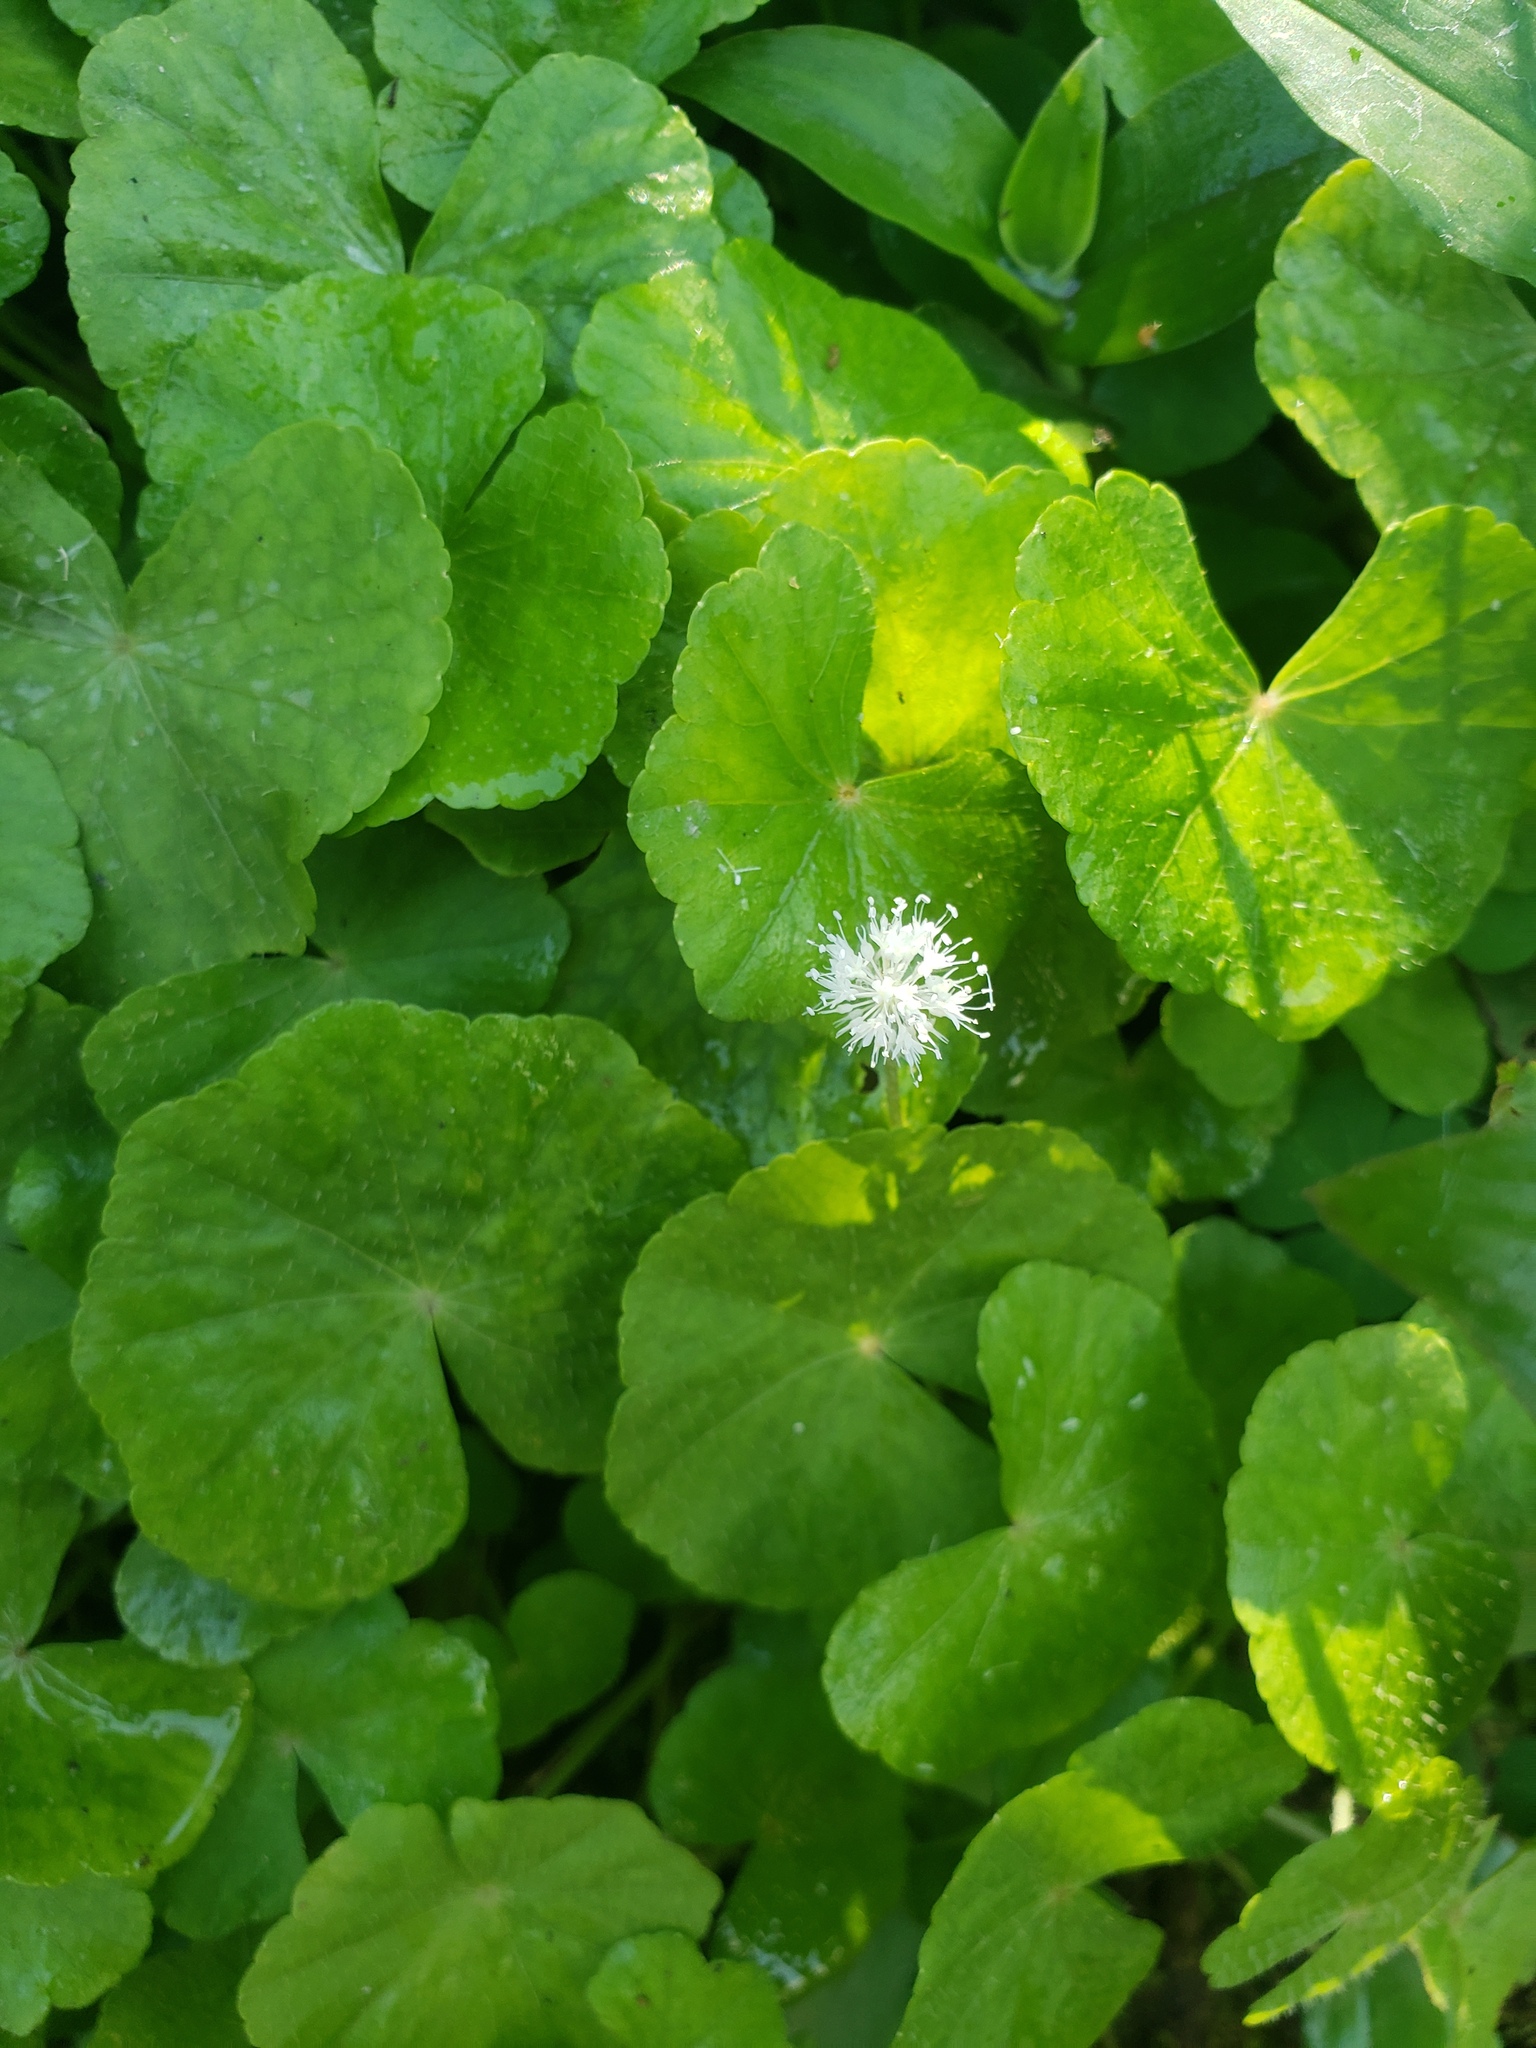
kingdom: Plantae
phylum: Tracheophyta
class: Magnoliopsida
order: Apiales
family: Araliaceae
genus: Hydrocotyle
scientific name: Hydrocotyle leucocephala
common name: Brazilian pennywort
